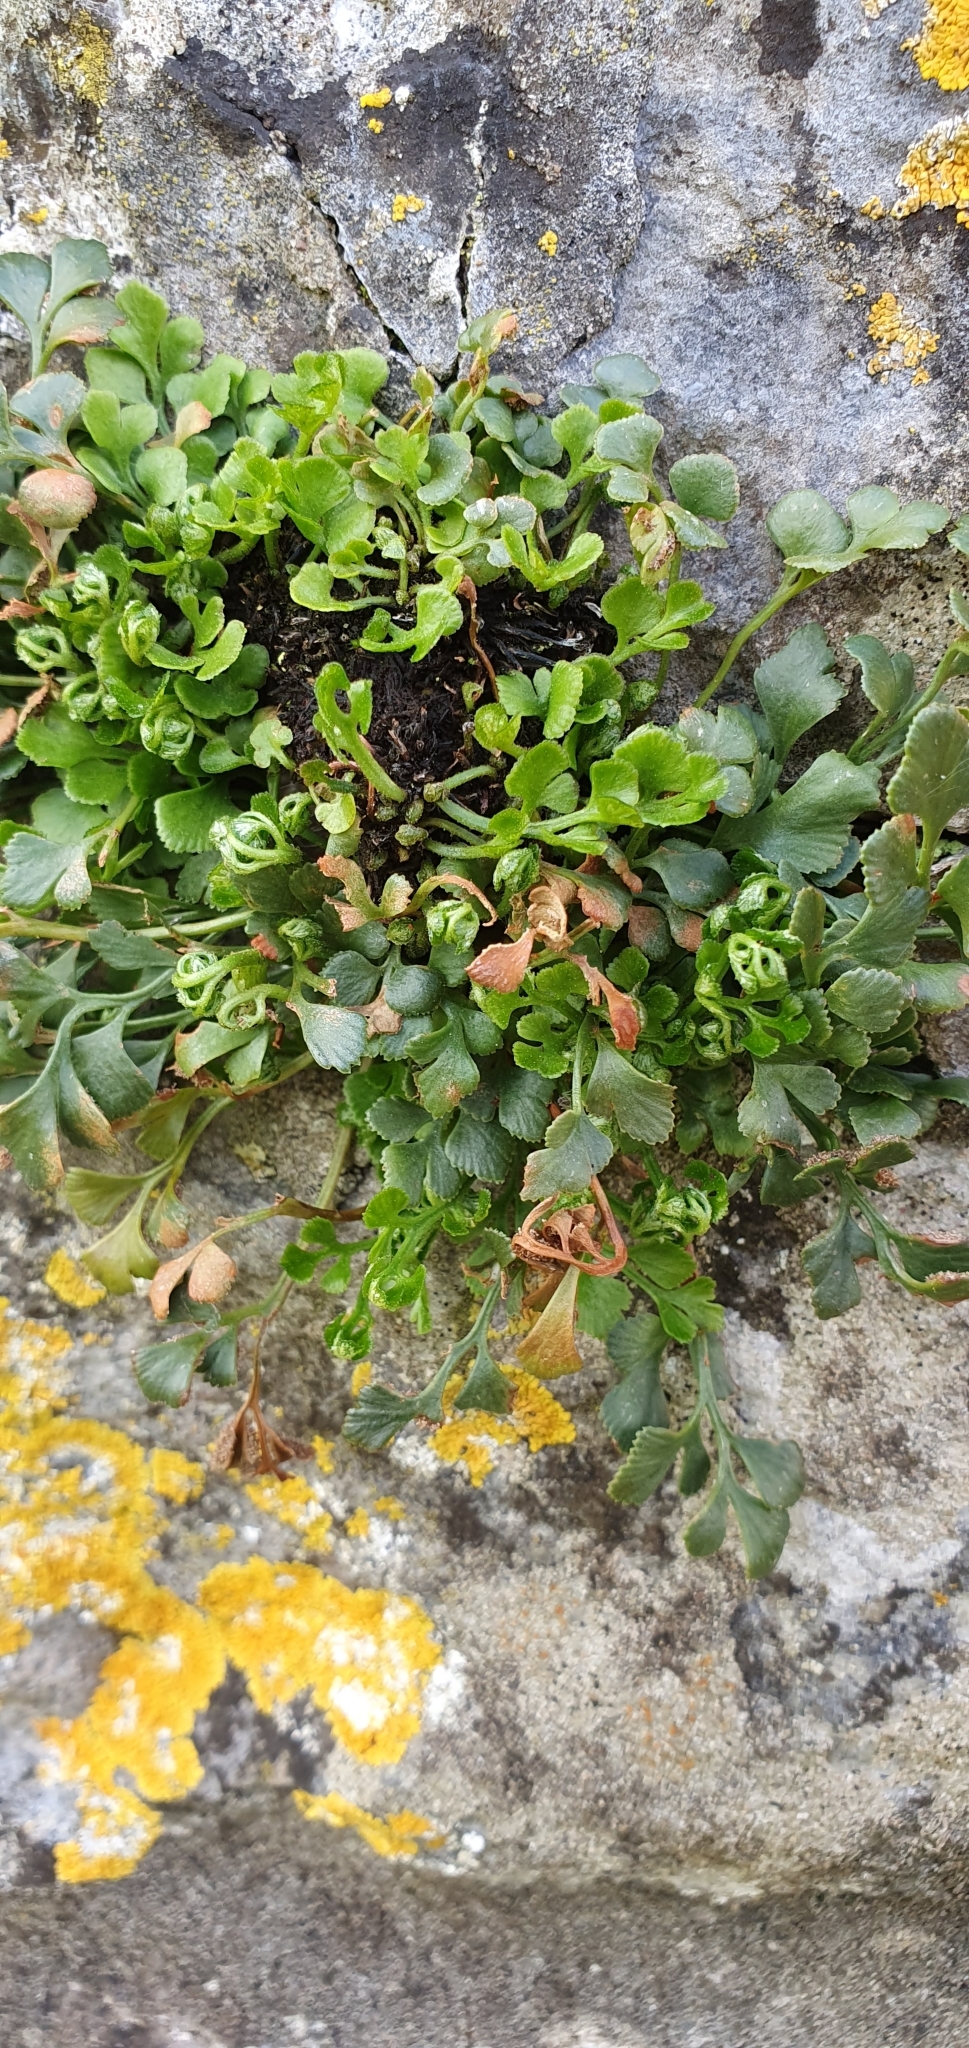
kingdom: Plantae
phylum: Tracheophyta
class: Polypodiopsida
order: Polypodiales
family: Aspleniaceae
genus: Asplenium
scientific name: Asplenium ruta-muraria
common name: Wall-rue
